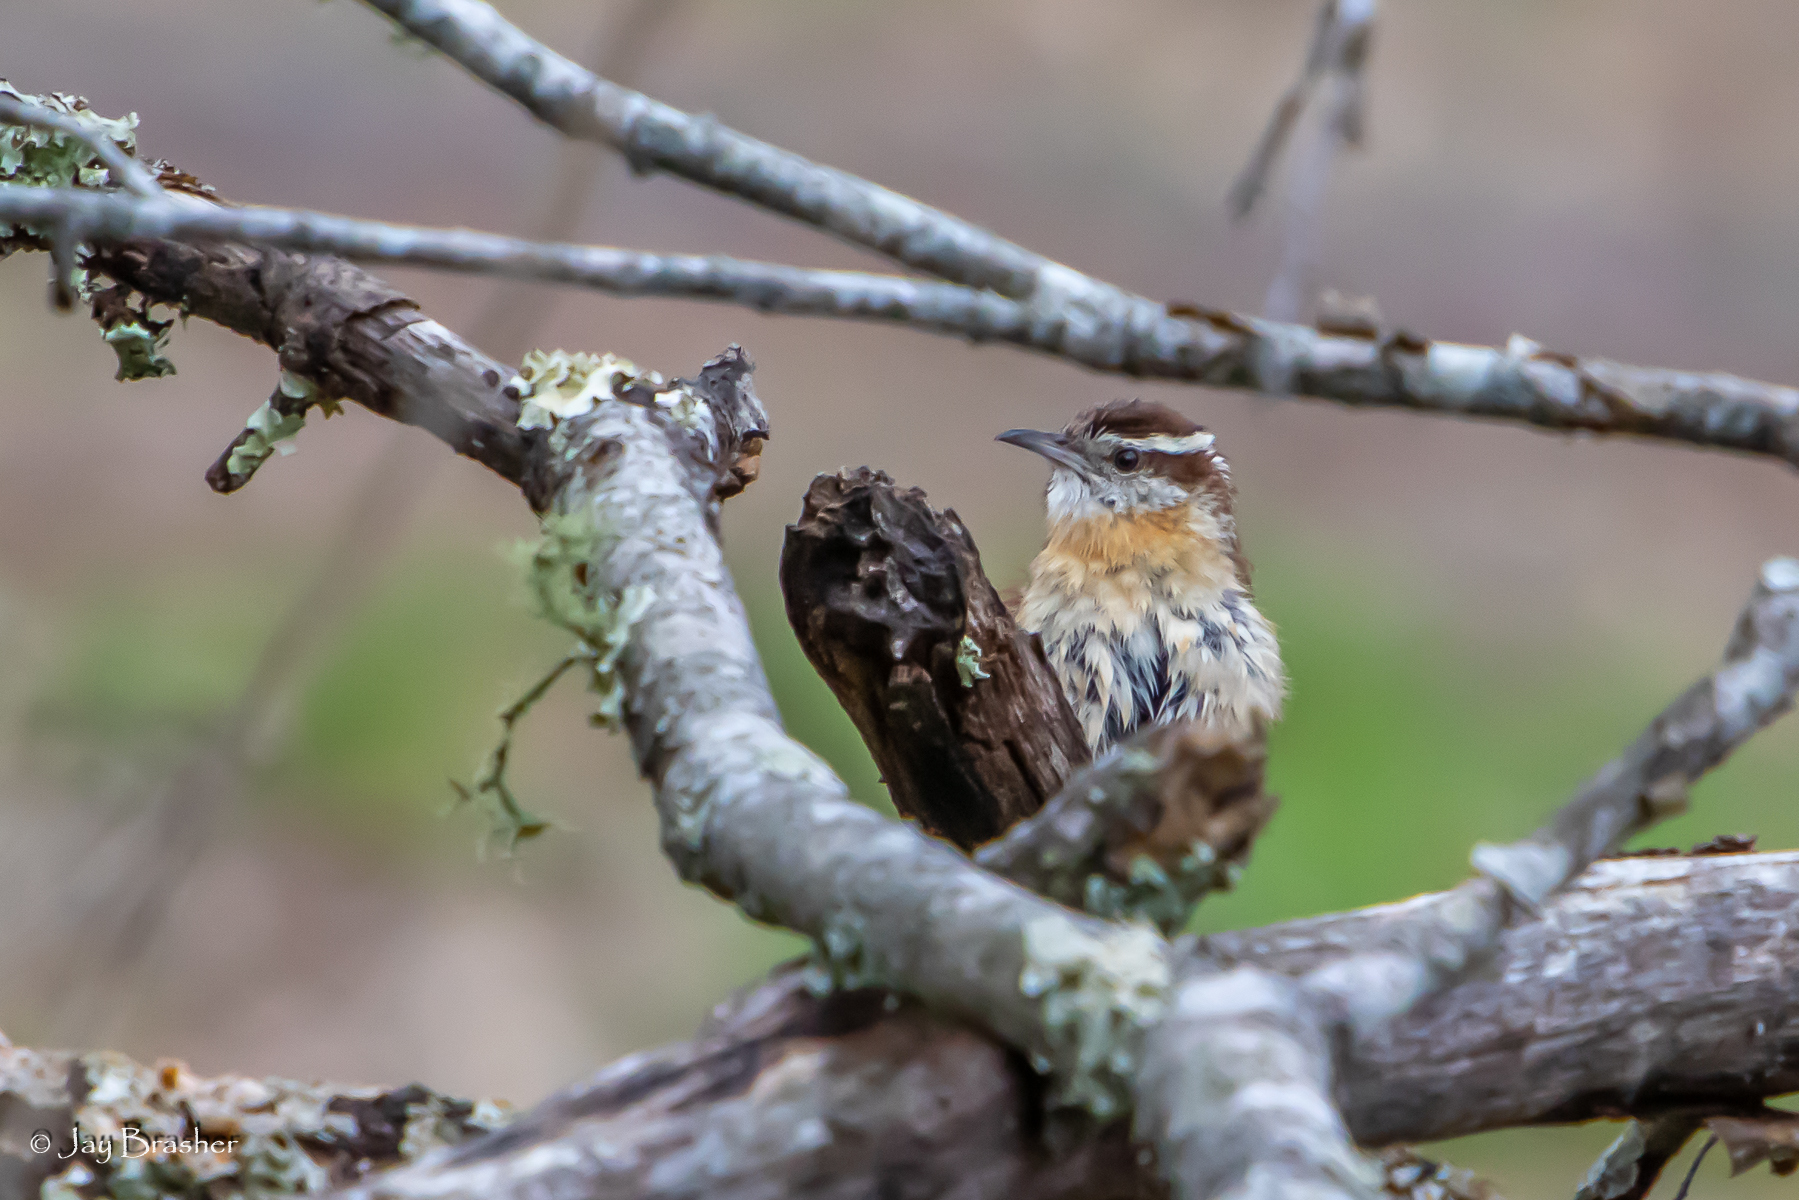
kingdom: Animalia
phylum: Chordata
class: Aves
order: Passeriformes
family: Troglodytidae
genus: Thryothorus
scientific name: Thryothorus ludovicianus
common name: Carolina wren
